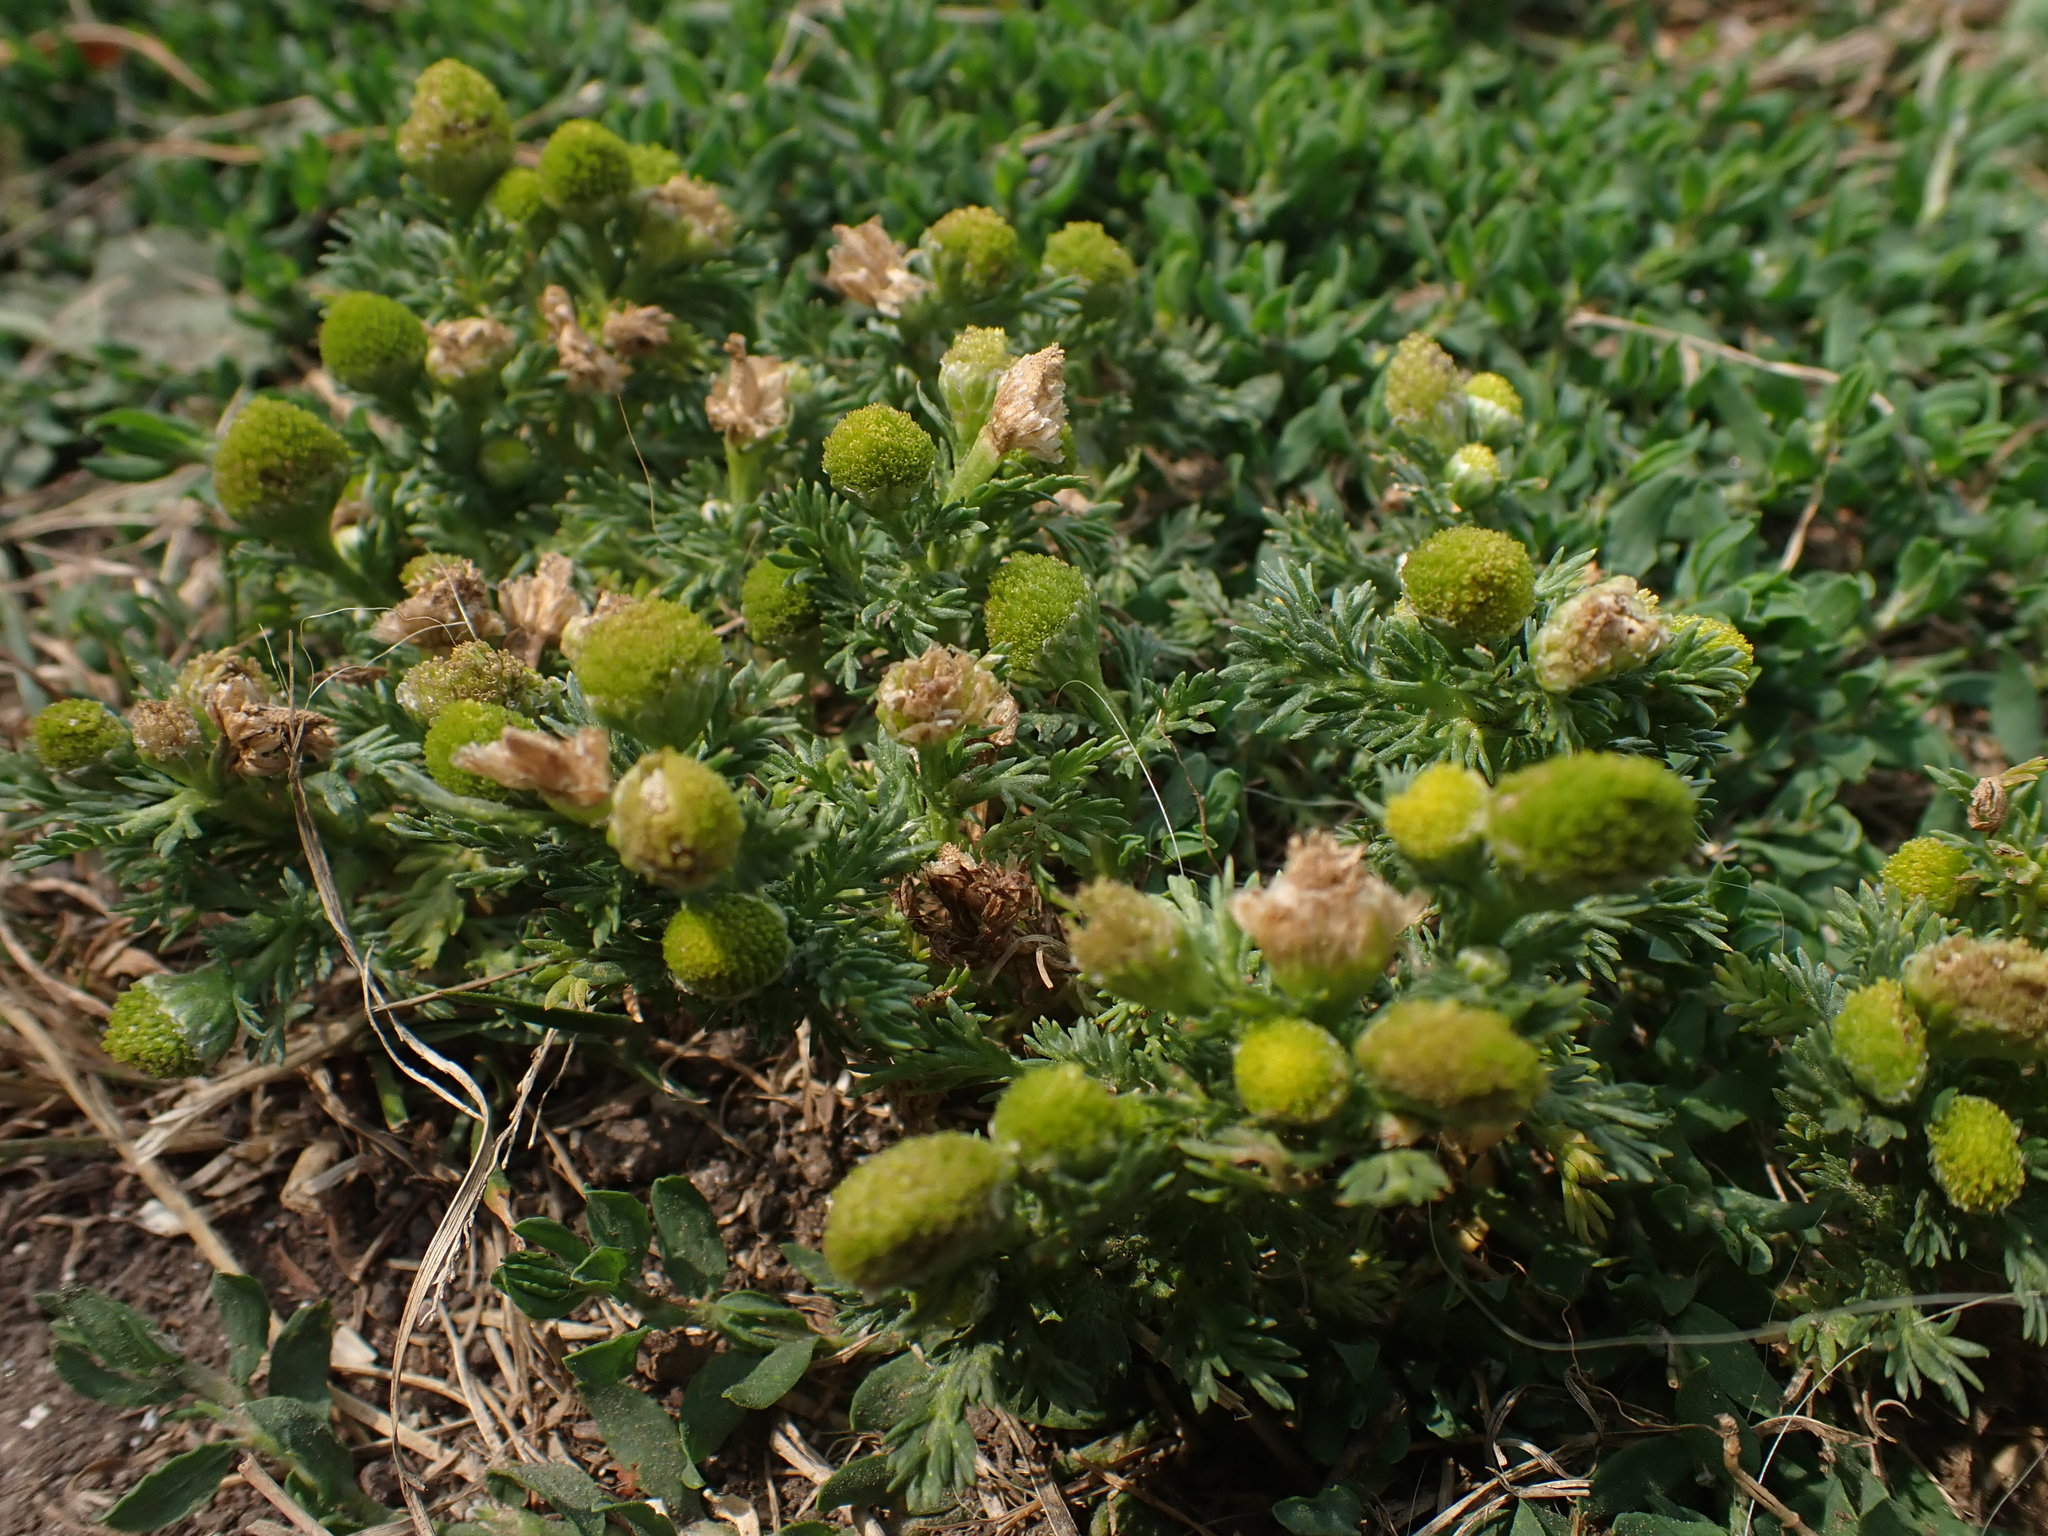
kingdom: Plantae
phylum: Tracheophyta
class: Magnoliopsida
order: Asterales
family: Asteraceae
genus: Matricaria
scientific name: Matricaria discoidea
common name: Disc mayweed
